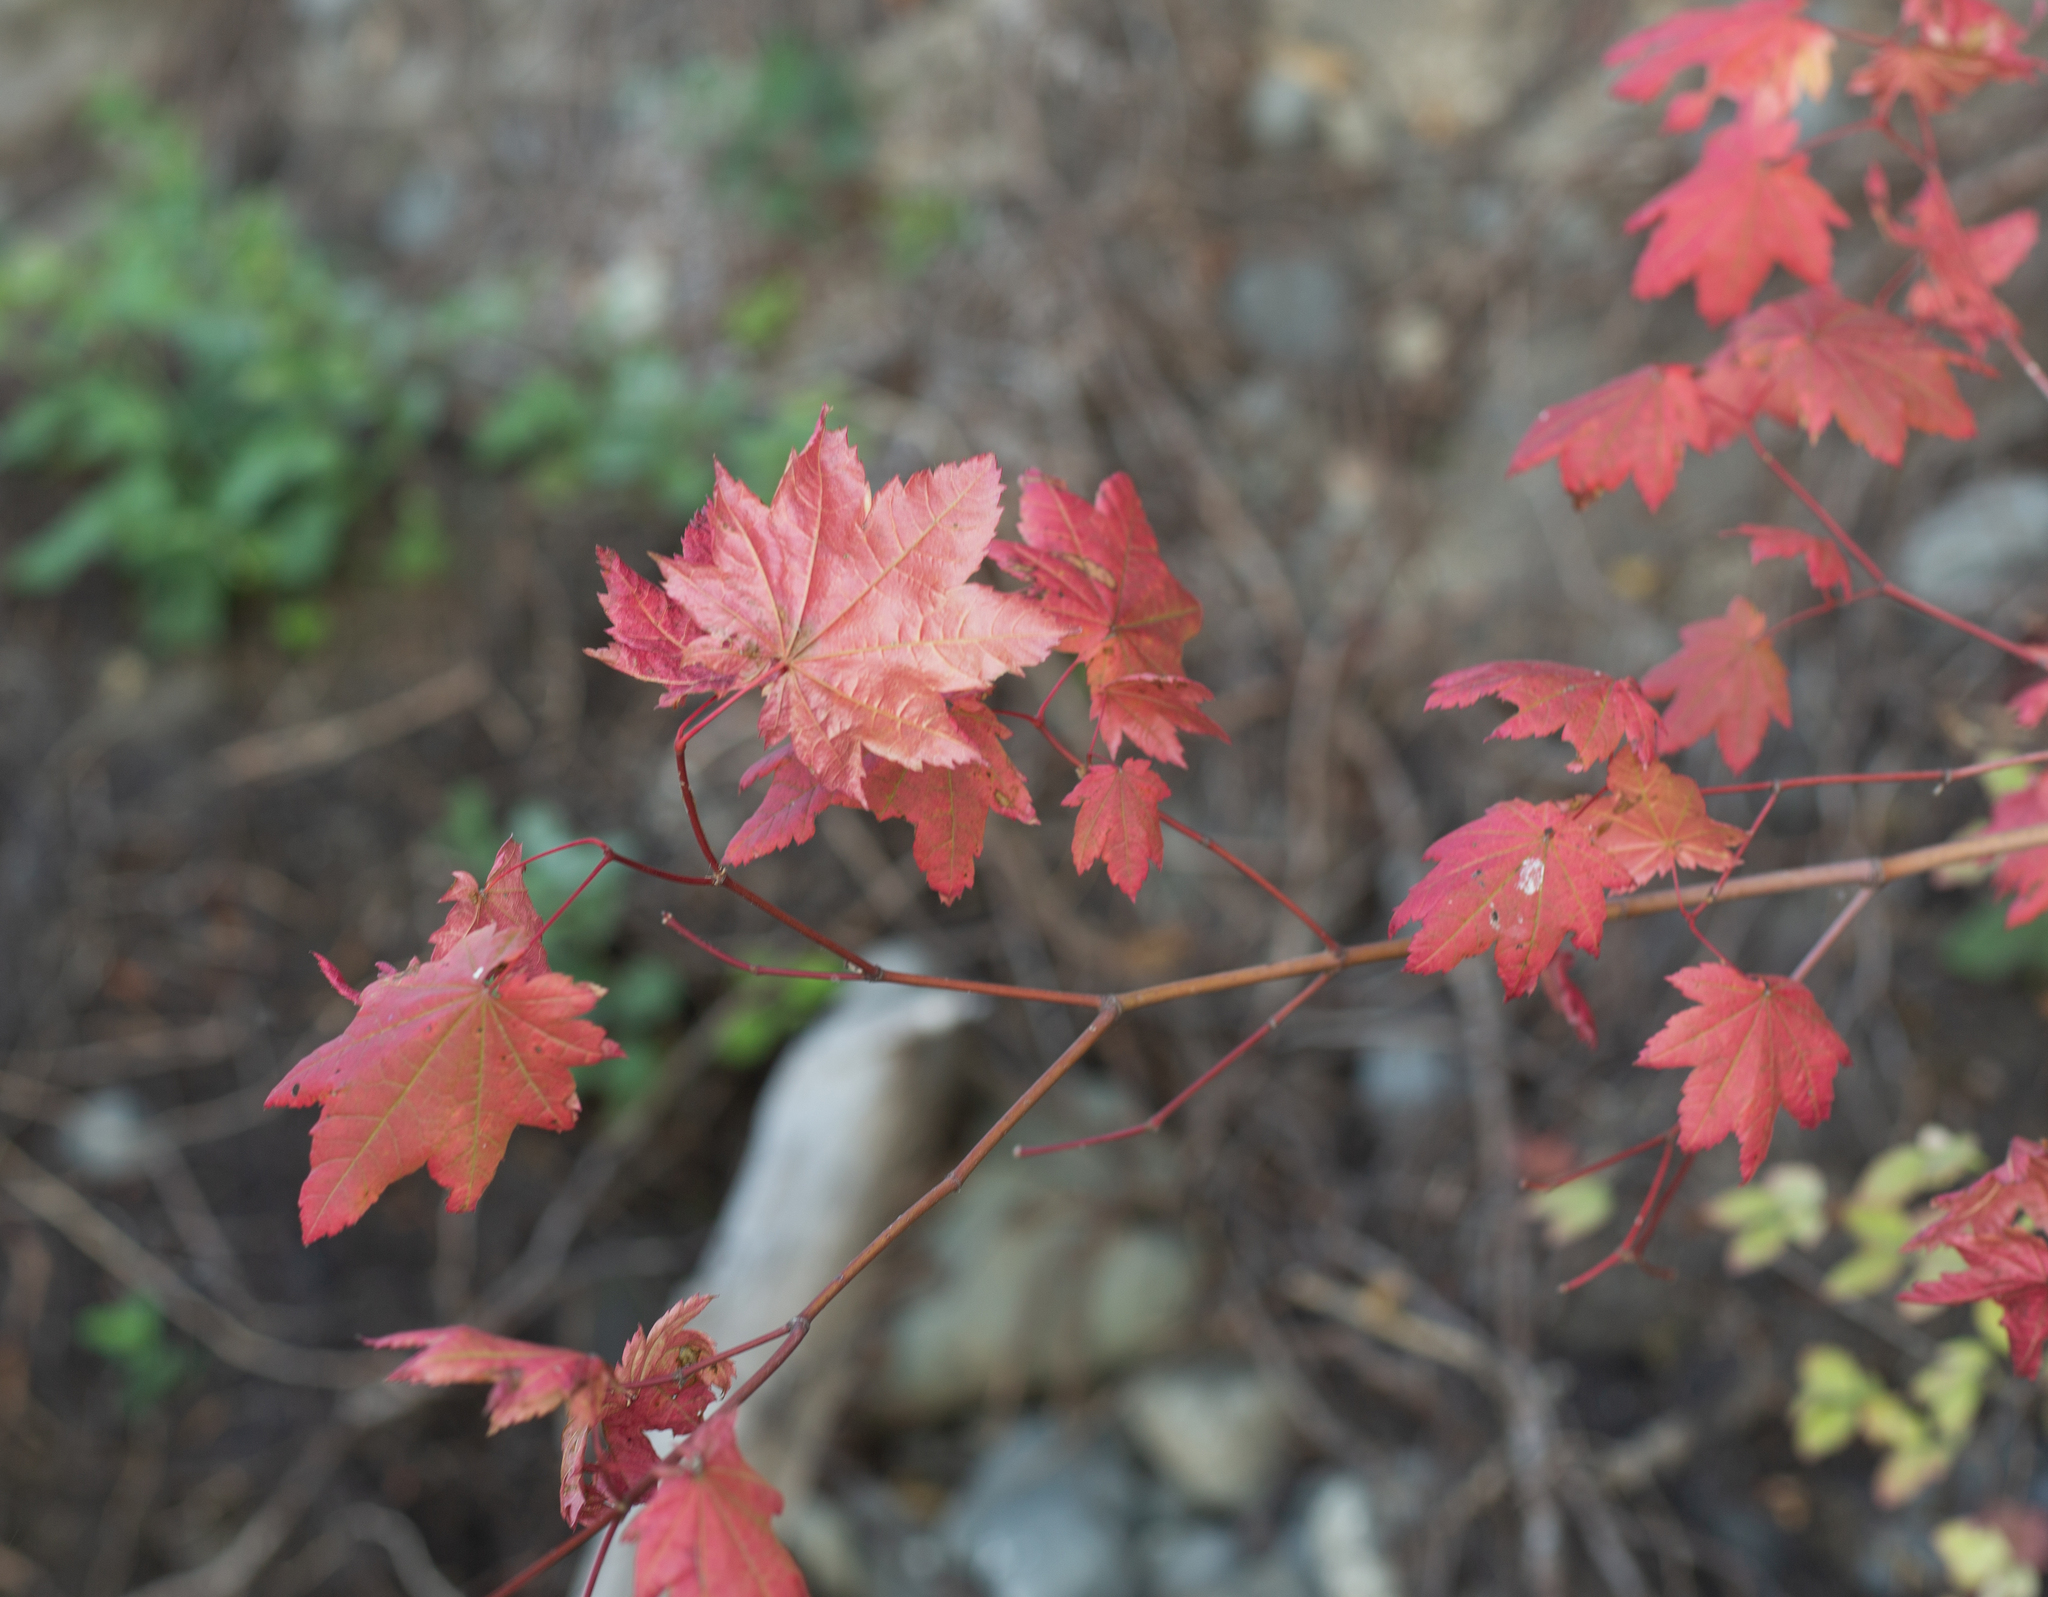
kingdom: Plantae
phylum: Tracheophyta
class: Magnoliopsida
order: Sapindales
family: Sapindaceae
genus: Acer
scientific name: Acer circinatum
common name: Vine maple
